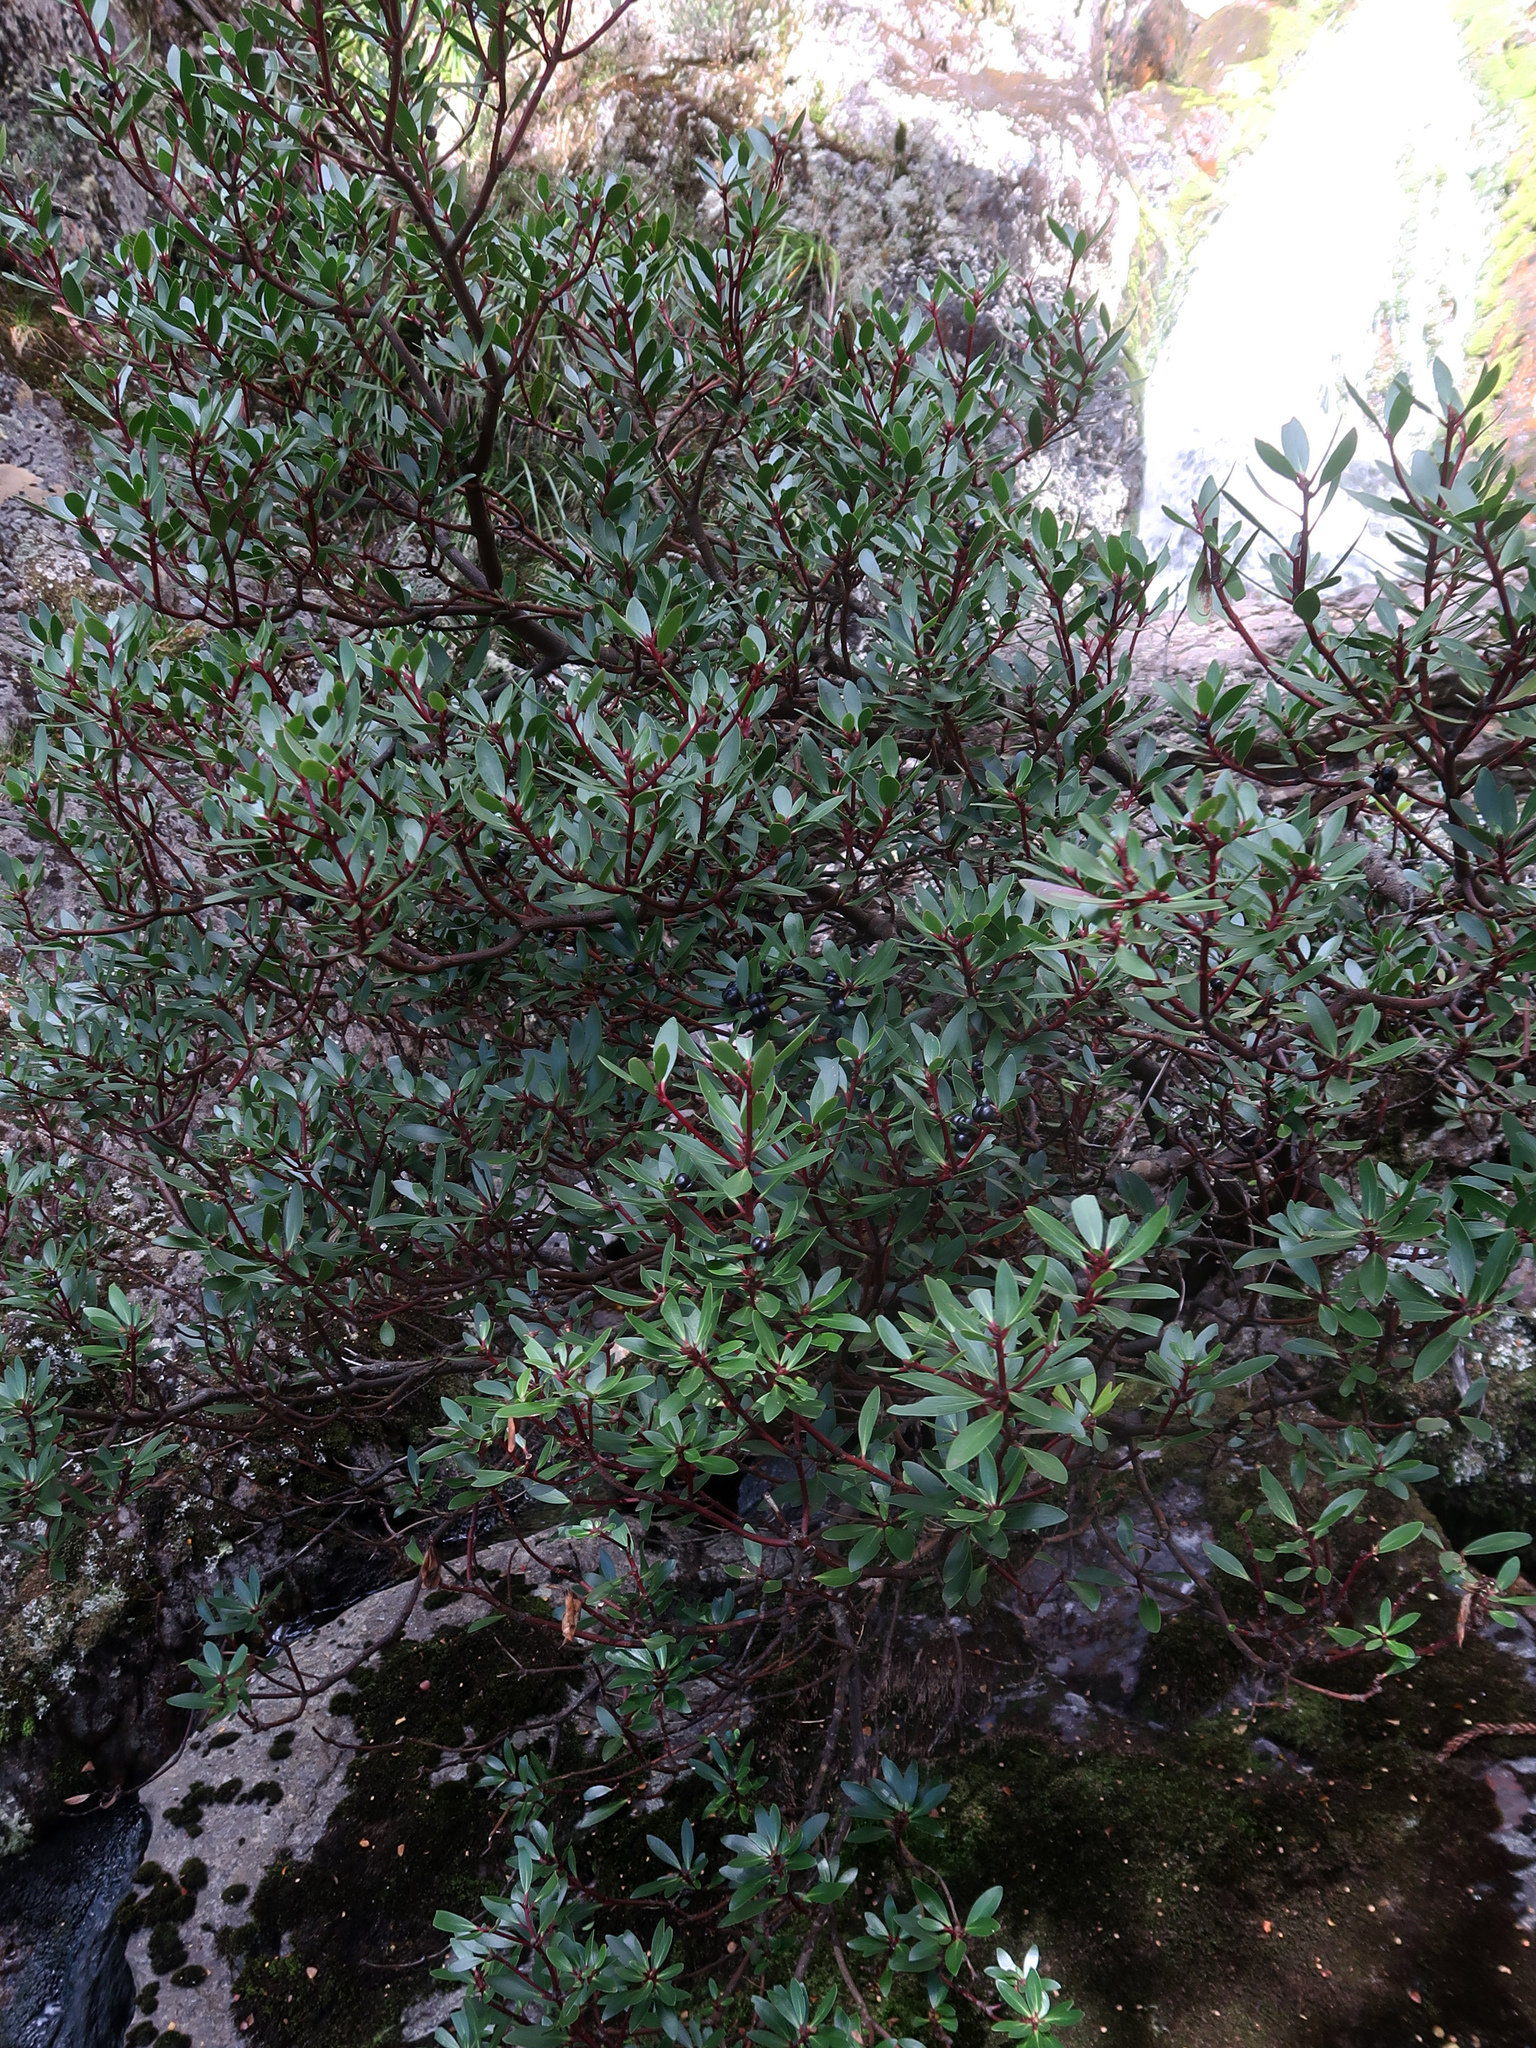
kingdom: Plantae
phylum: Tracheophyta
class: Magnoliopsida
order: Canellales
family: Winteraceae
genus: Drimys
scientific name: Drimys aromatica
